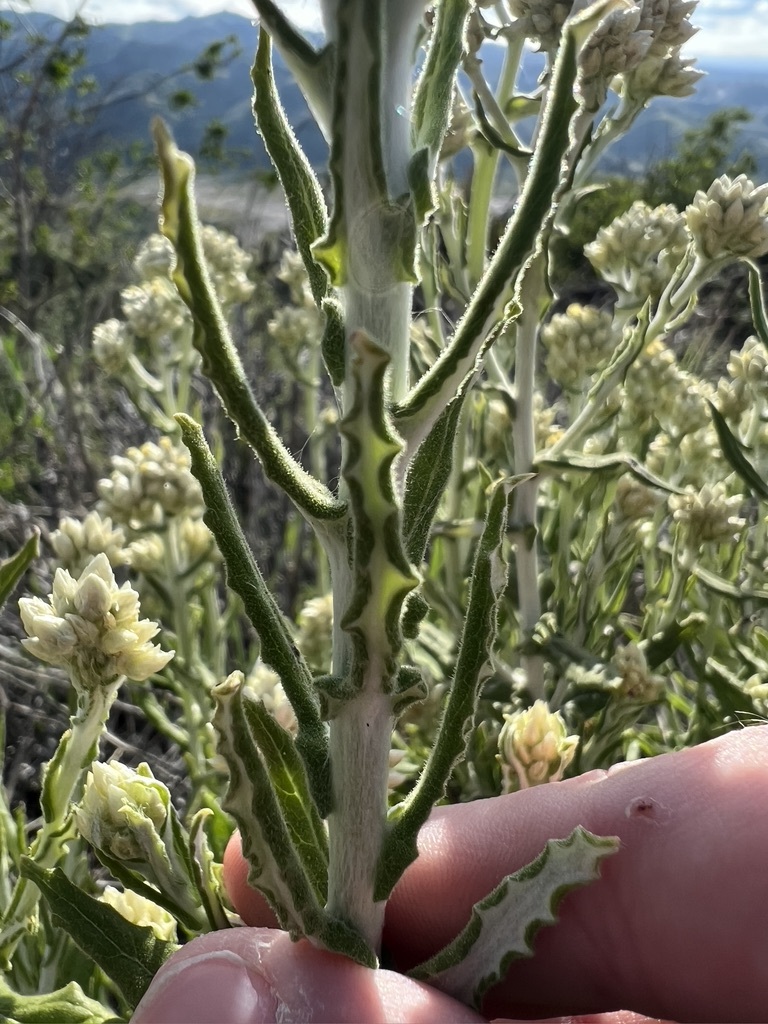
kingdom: Plantae
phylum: Tracheophyta
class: Magnoliopsida
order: Asterales
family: Asteraceae
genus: Pseudognaphalium
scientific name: Pseudognaphalium biolettii
